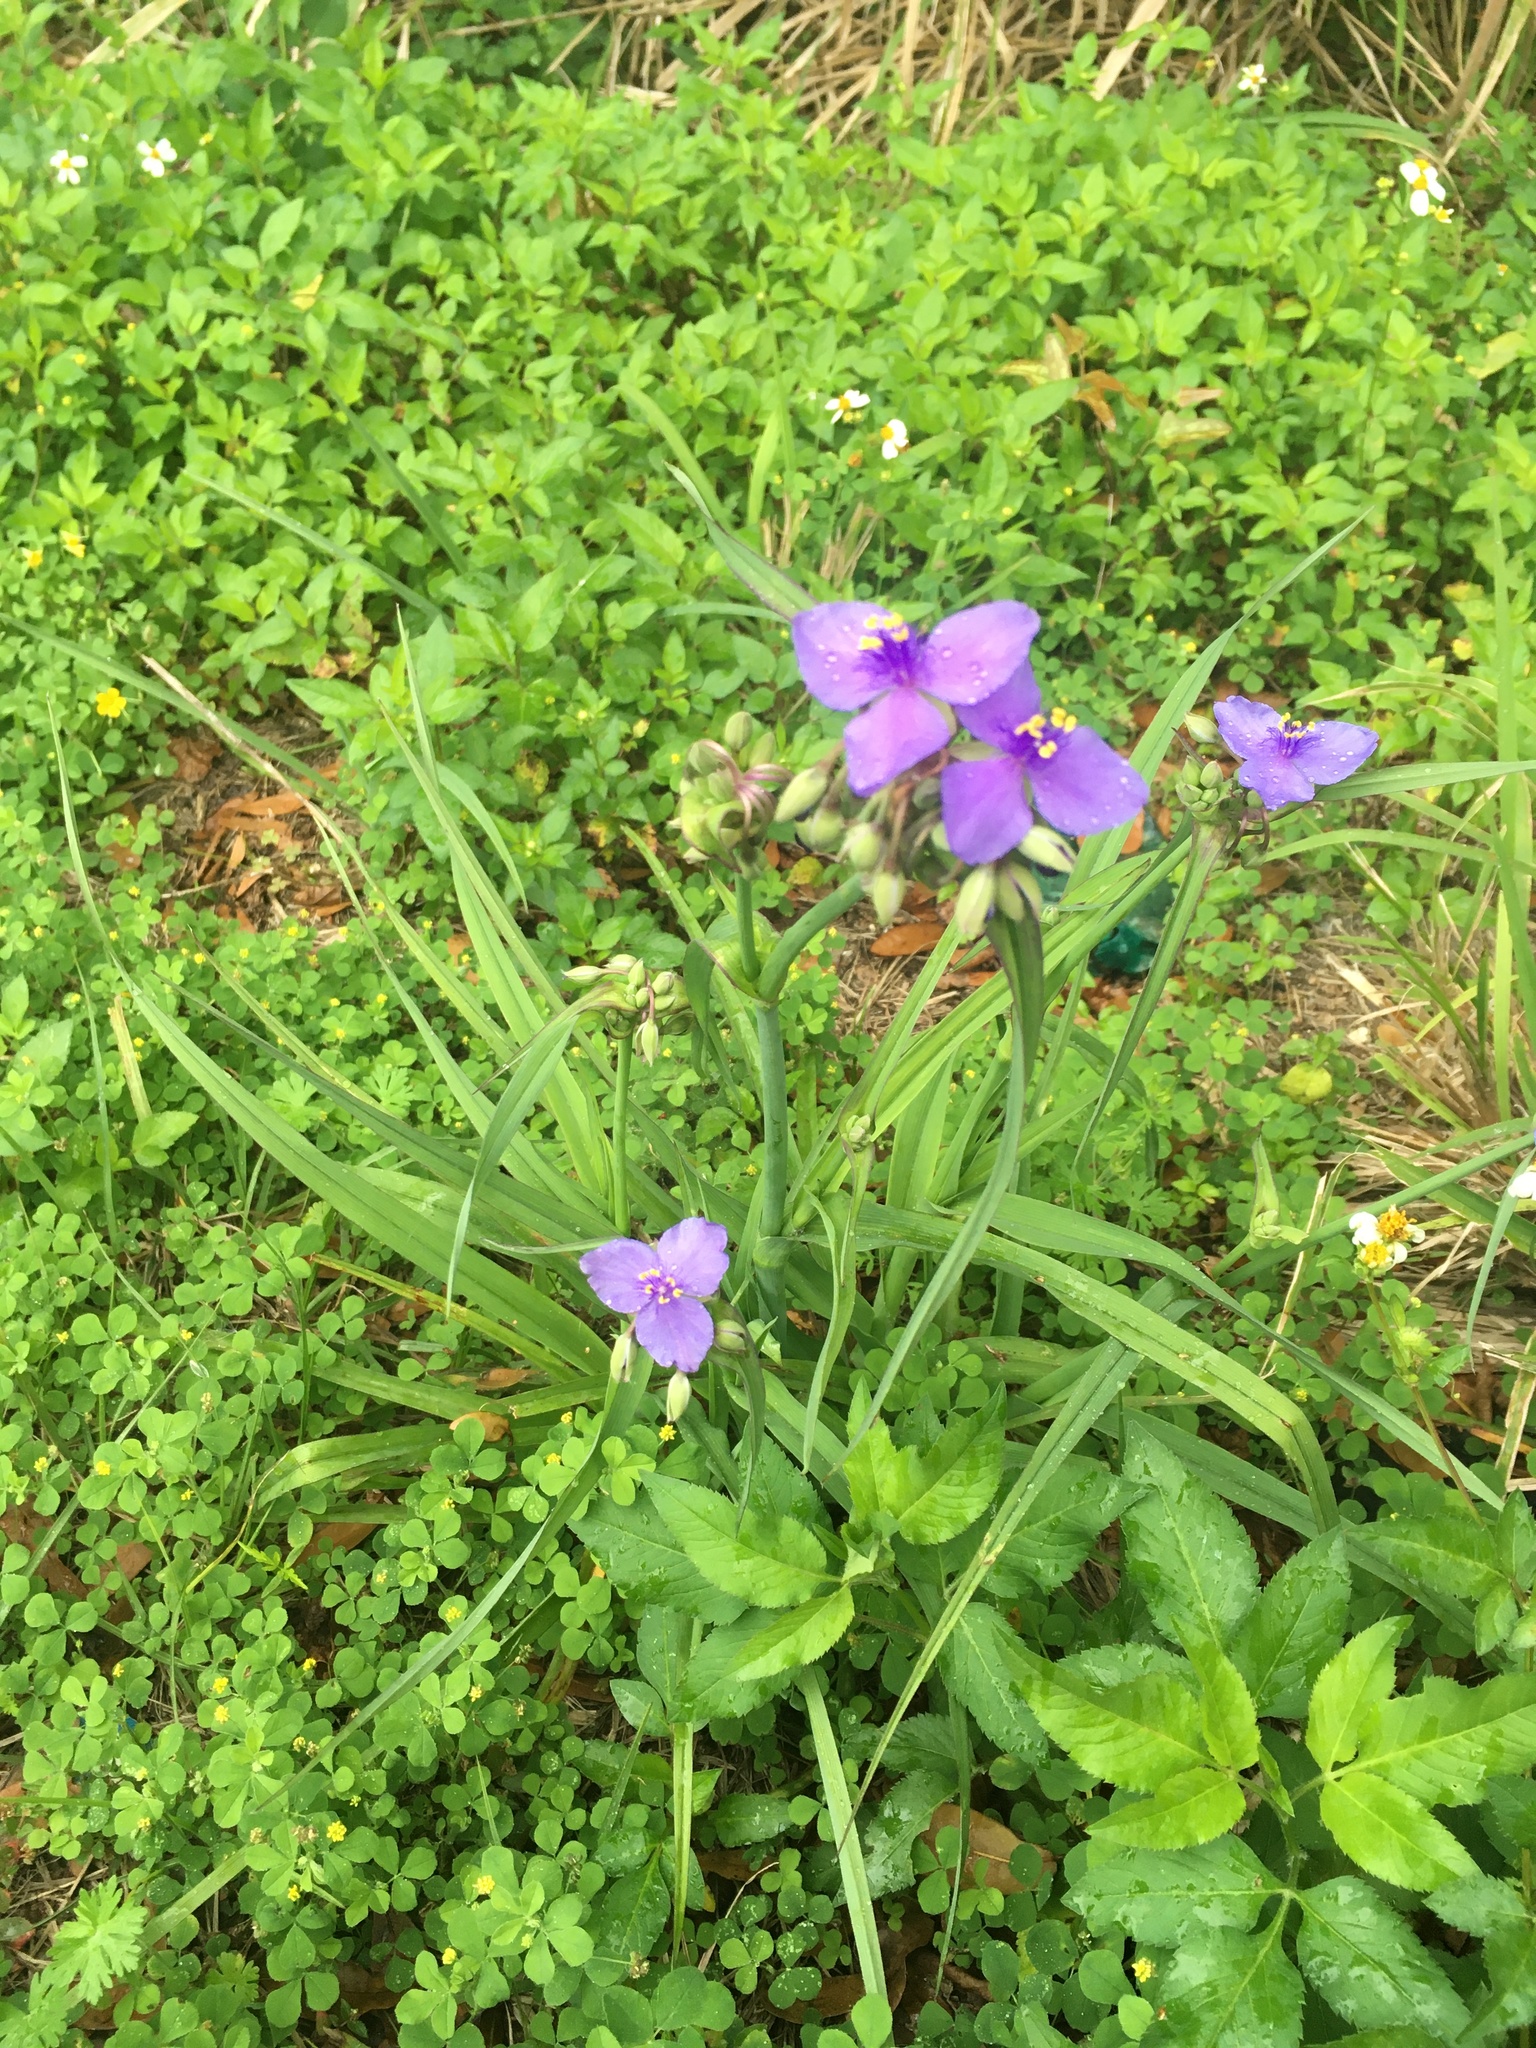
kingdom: Plantae
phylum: Tracheophyta
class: Liliopsida
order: Commelinales
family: Commelinaceae
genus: Tradescantia
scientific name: Tradescantia ohiensis
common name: Ohio spiderwort
